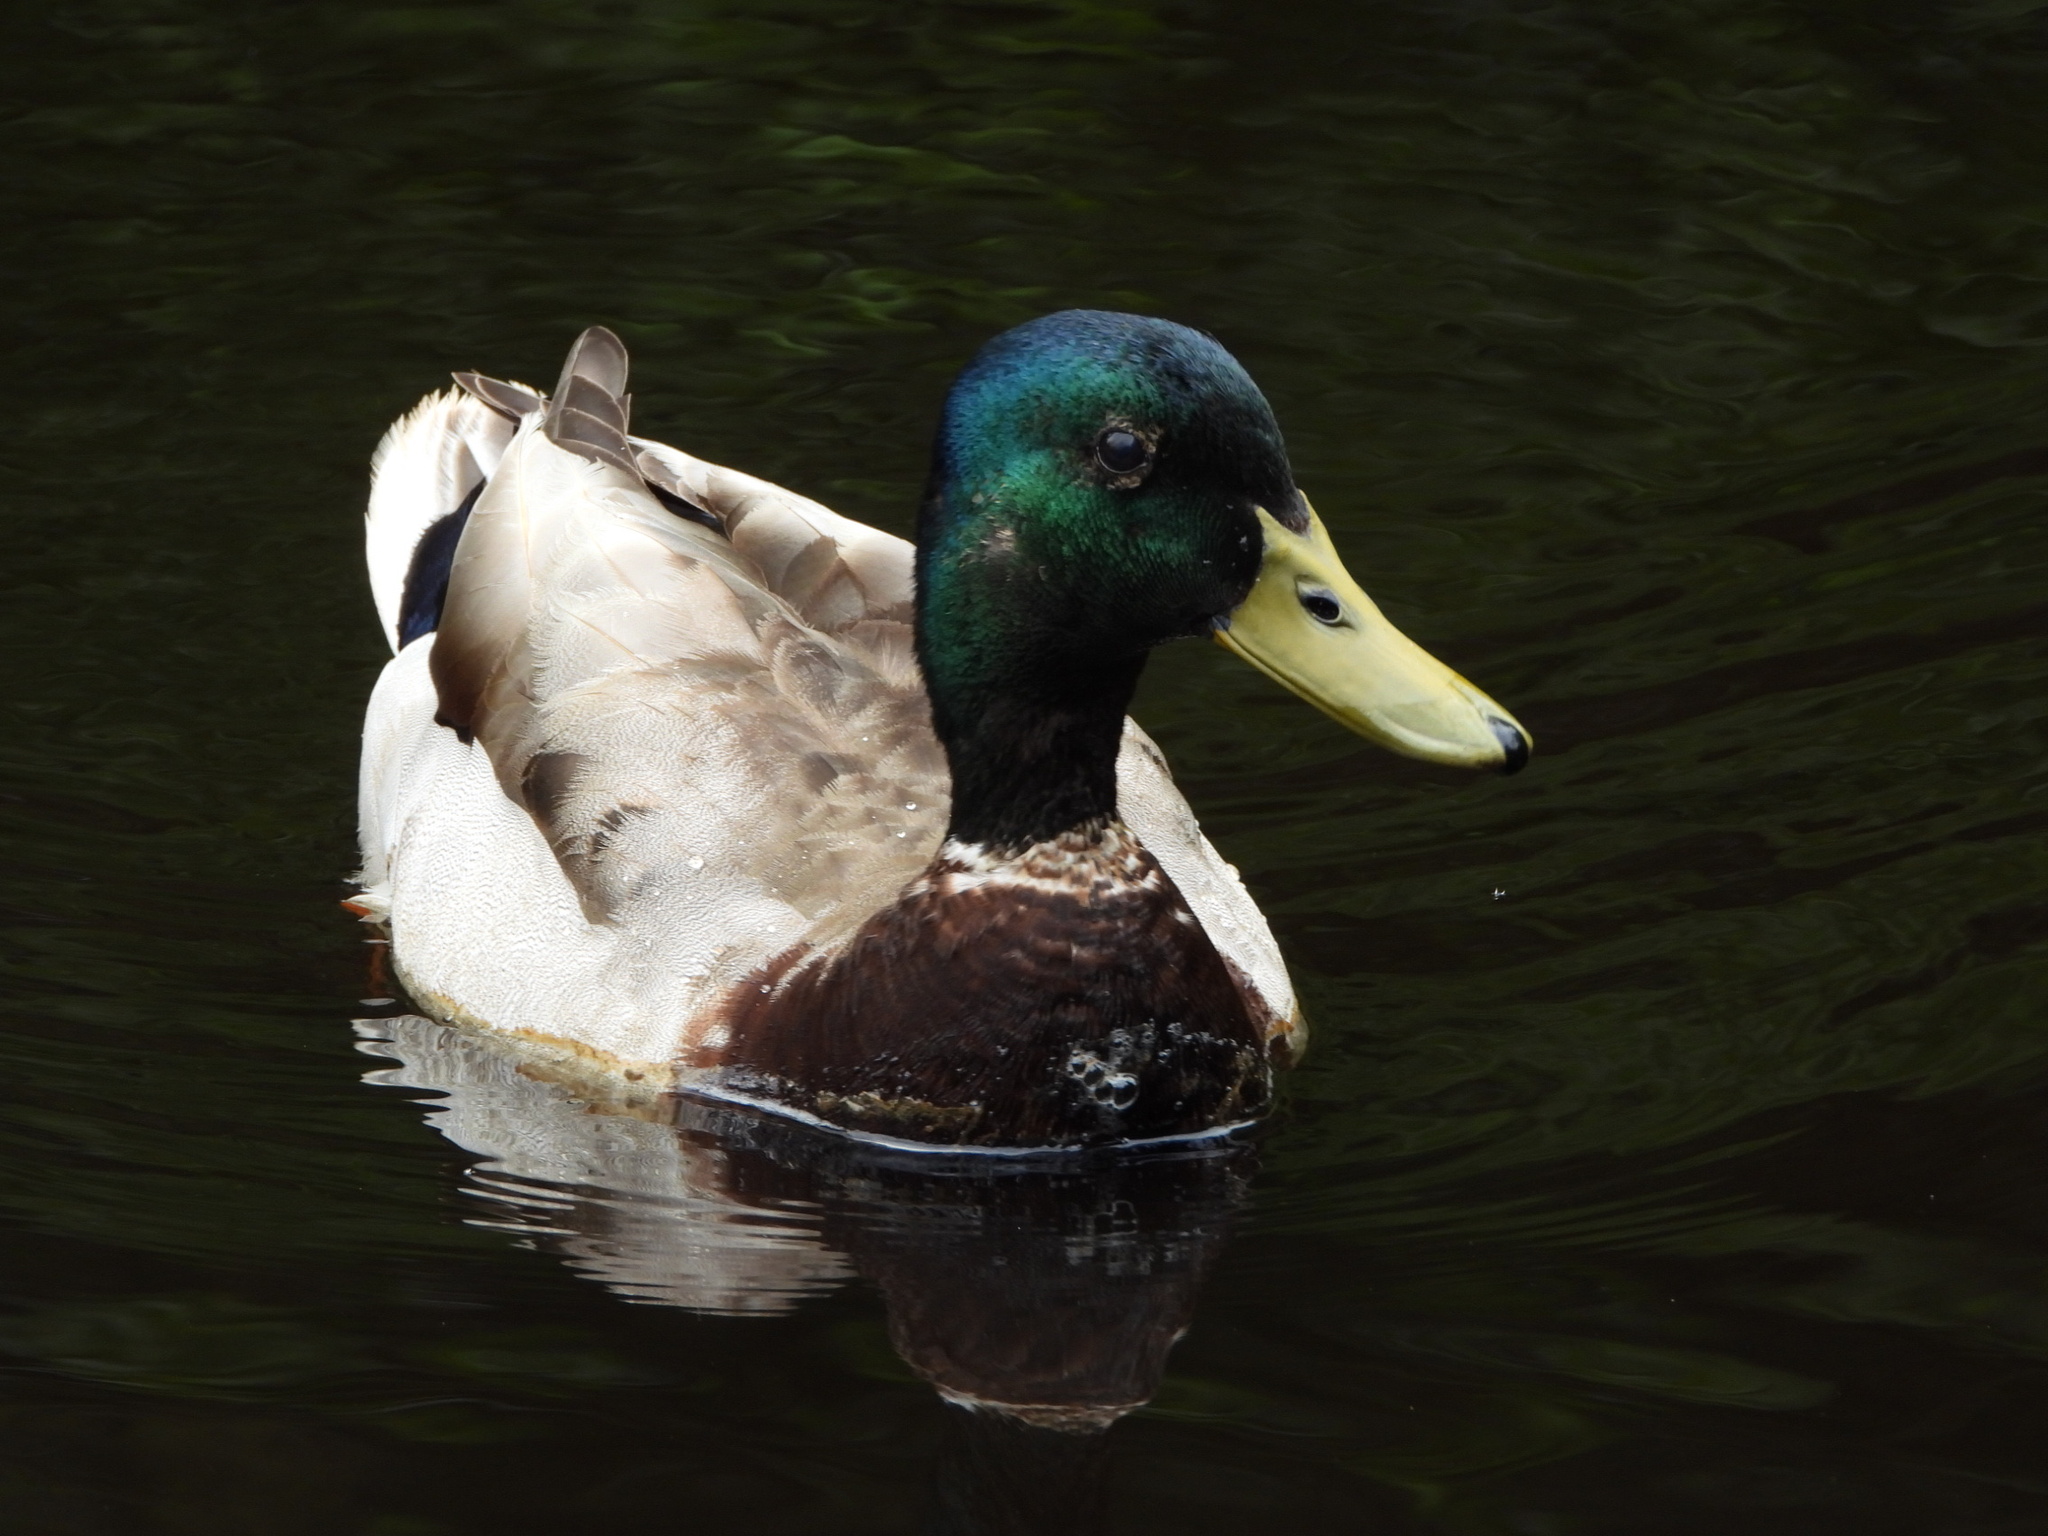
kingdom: Animalia
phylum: Chordata
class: Aves
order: Anseriformes
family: Anatidae
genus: Anas
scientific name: Anas platyrhynchos
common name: Mallard
